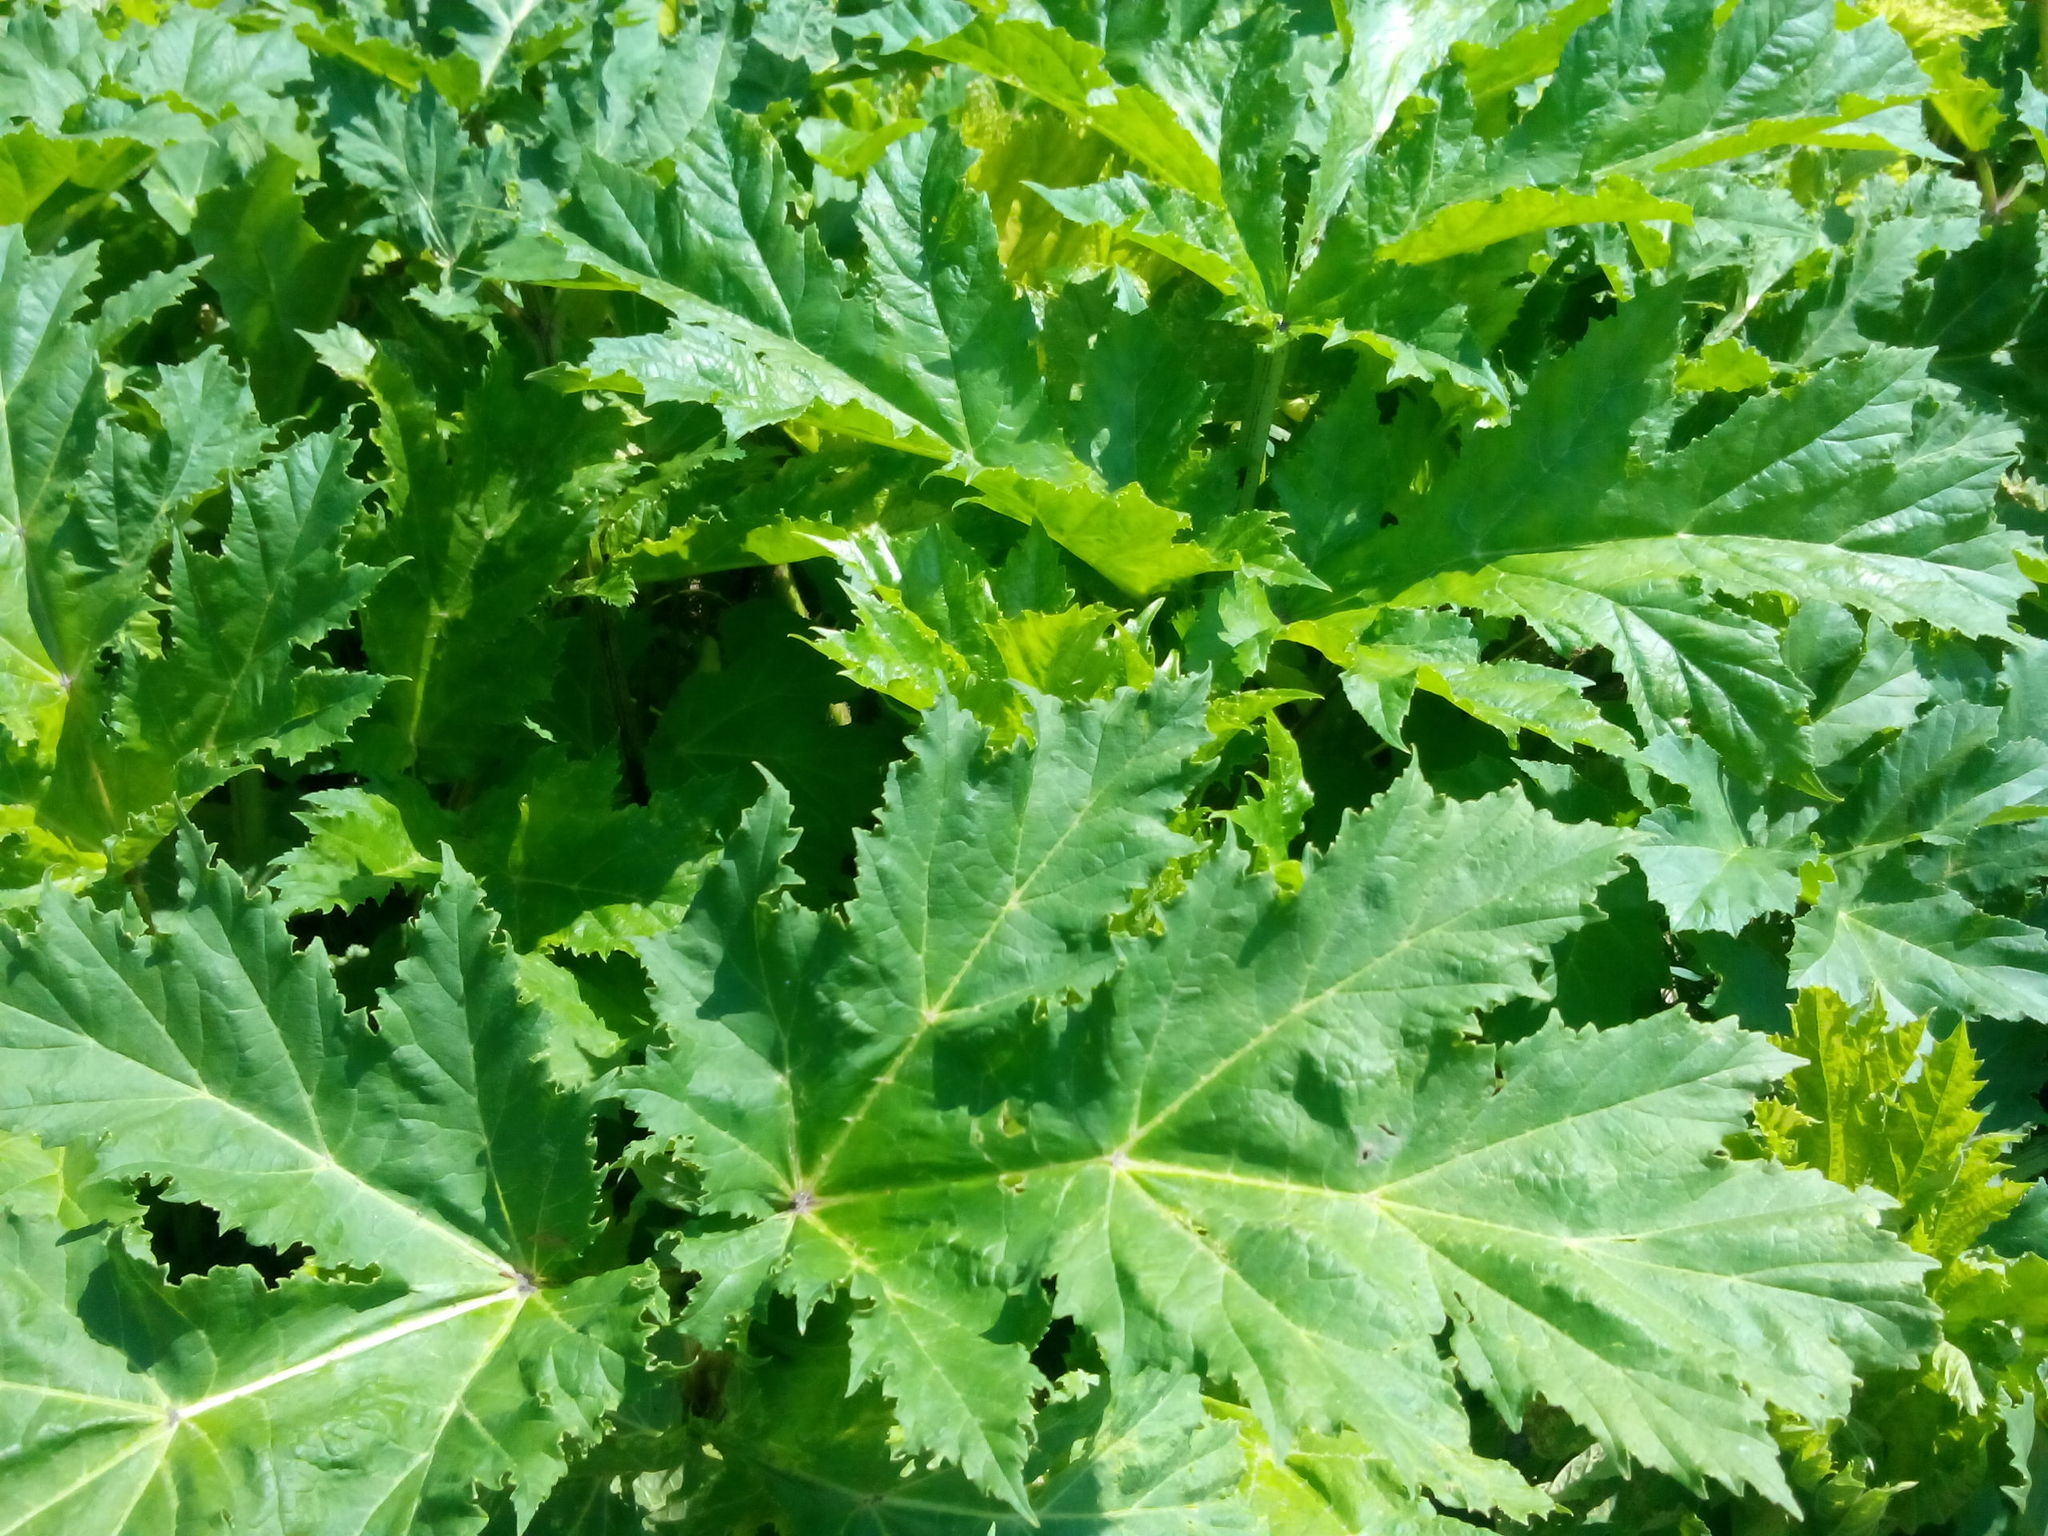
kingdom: Plantae
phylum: Tracheophyta
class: Magnoliopsida
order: Apiales
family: Apiaceae
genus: Heracleum
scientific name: Heracleum sosnowskyi
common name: Sosnowsky's hogweed
